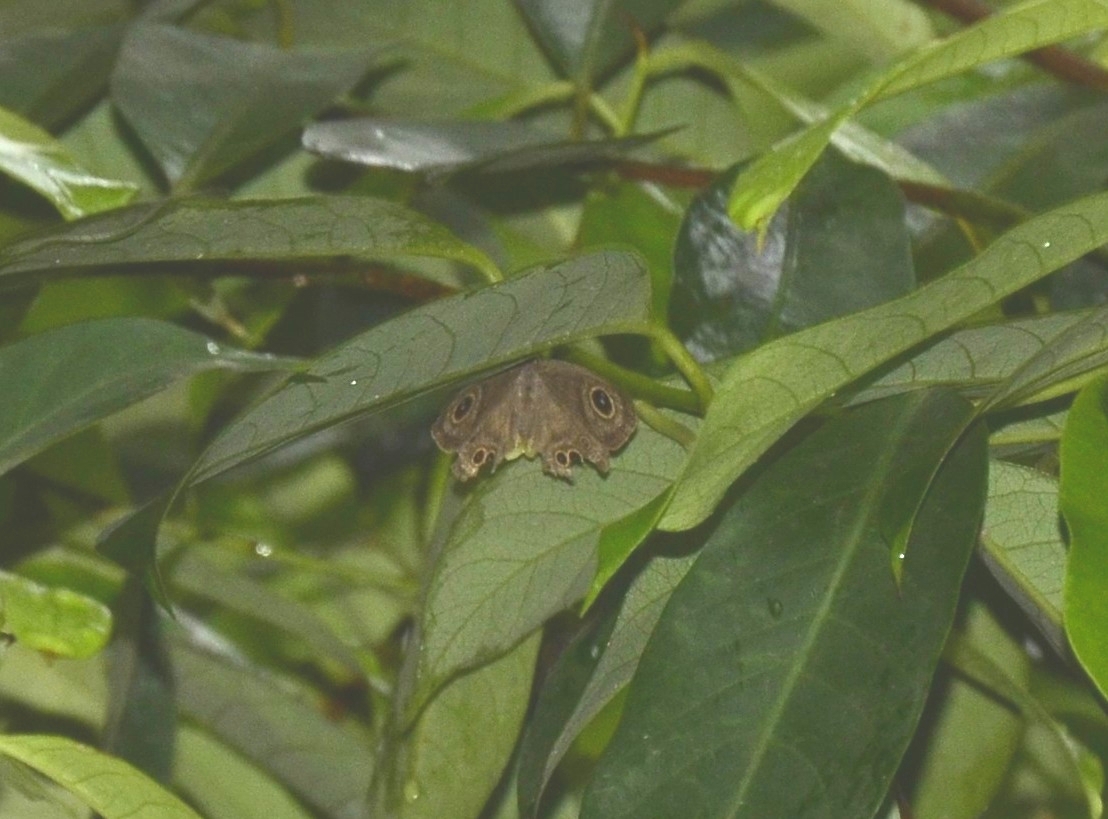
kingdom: Animalia
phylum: Arthropoda
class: Insecta
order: Lepidoptera
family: Nymphalidae
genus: Ypthima
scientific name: Ypthima baldus
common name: Common five-ring
